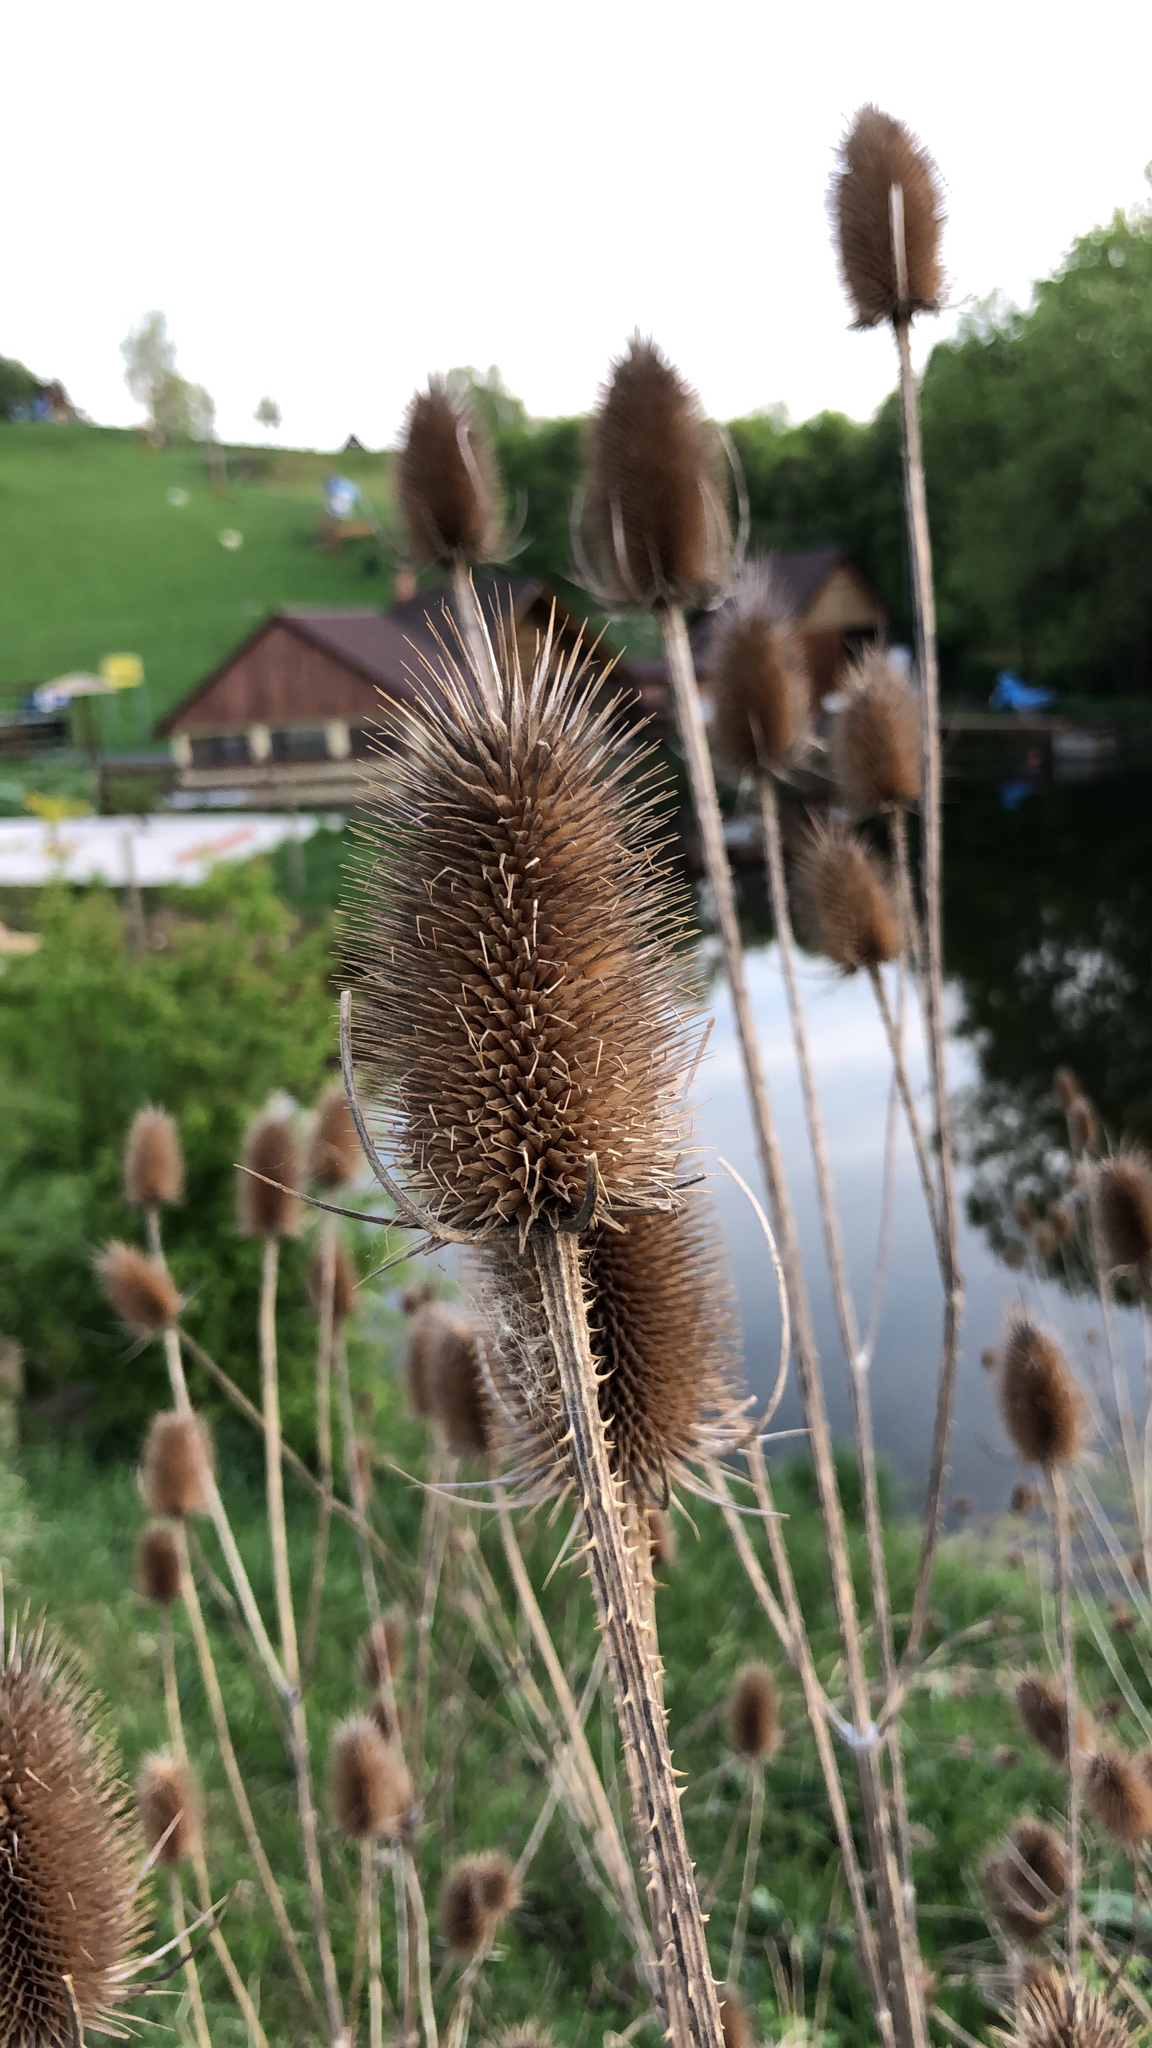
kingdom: Plantae
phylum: Tracheophyta
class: Magnoliopsida
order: Dipsacales
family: Caprifoliaceae
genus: Dipsacus
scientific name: Dipsacus fullonum
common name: Teasel
